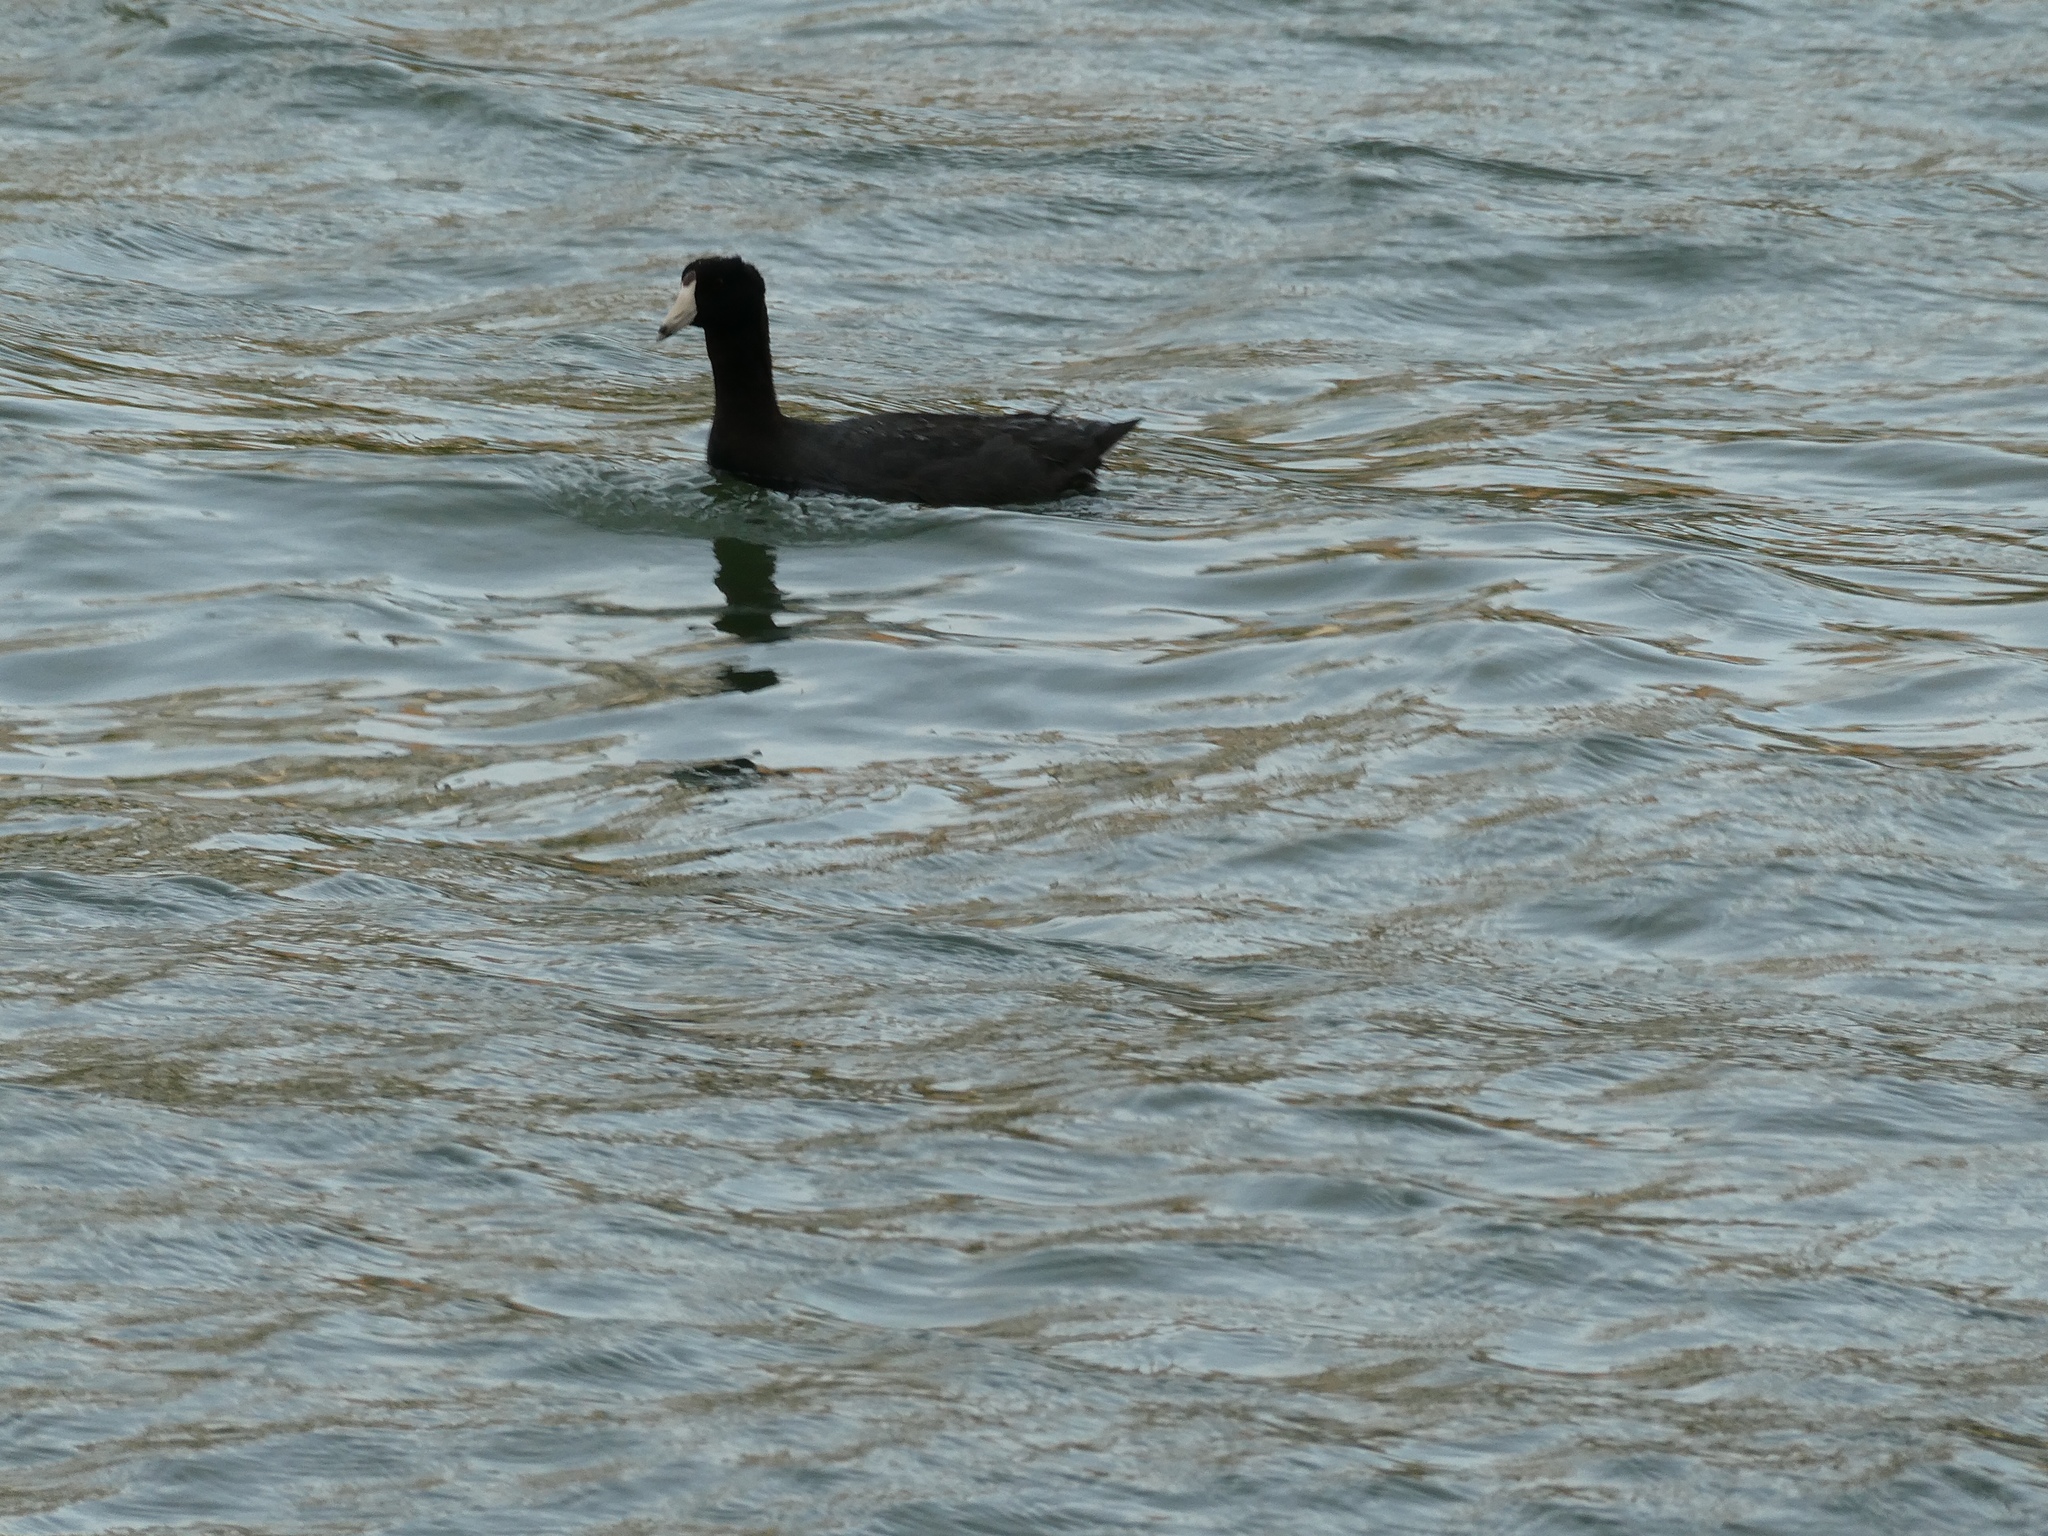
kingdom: Animalia
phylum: Chordata
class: Aves
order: Gruiformes
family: Rallidae
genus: Fulica
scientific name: Fulica americana
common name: American coot
